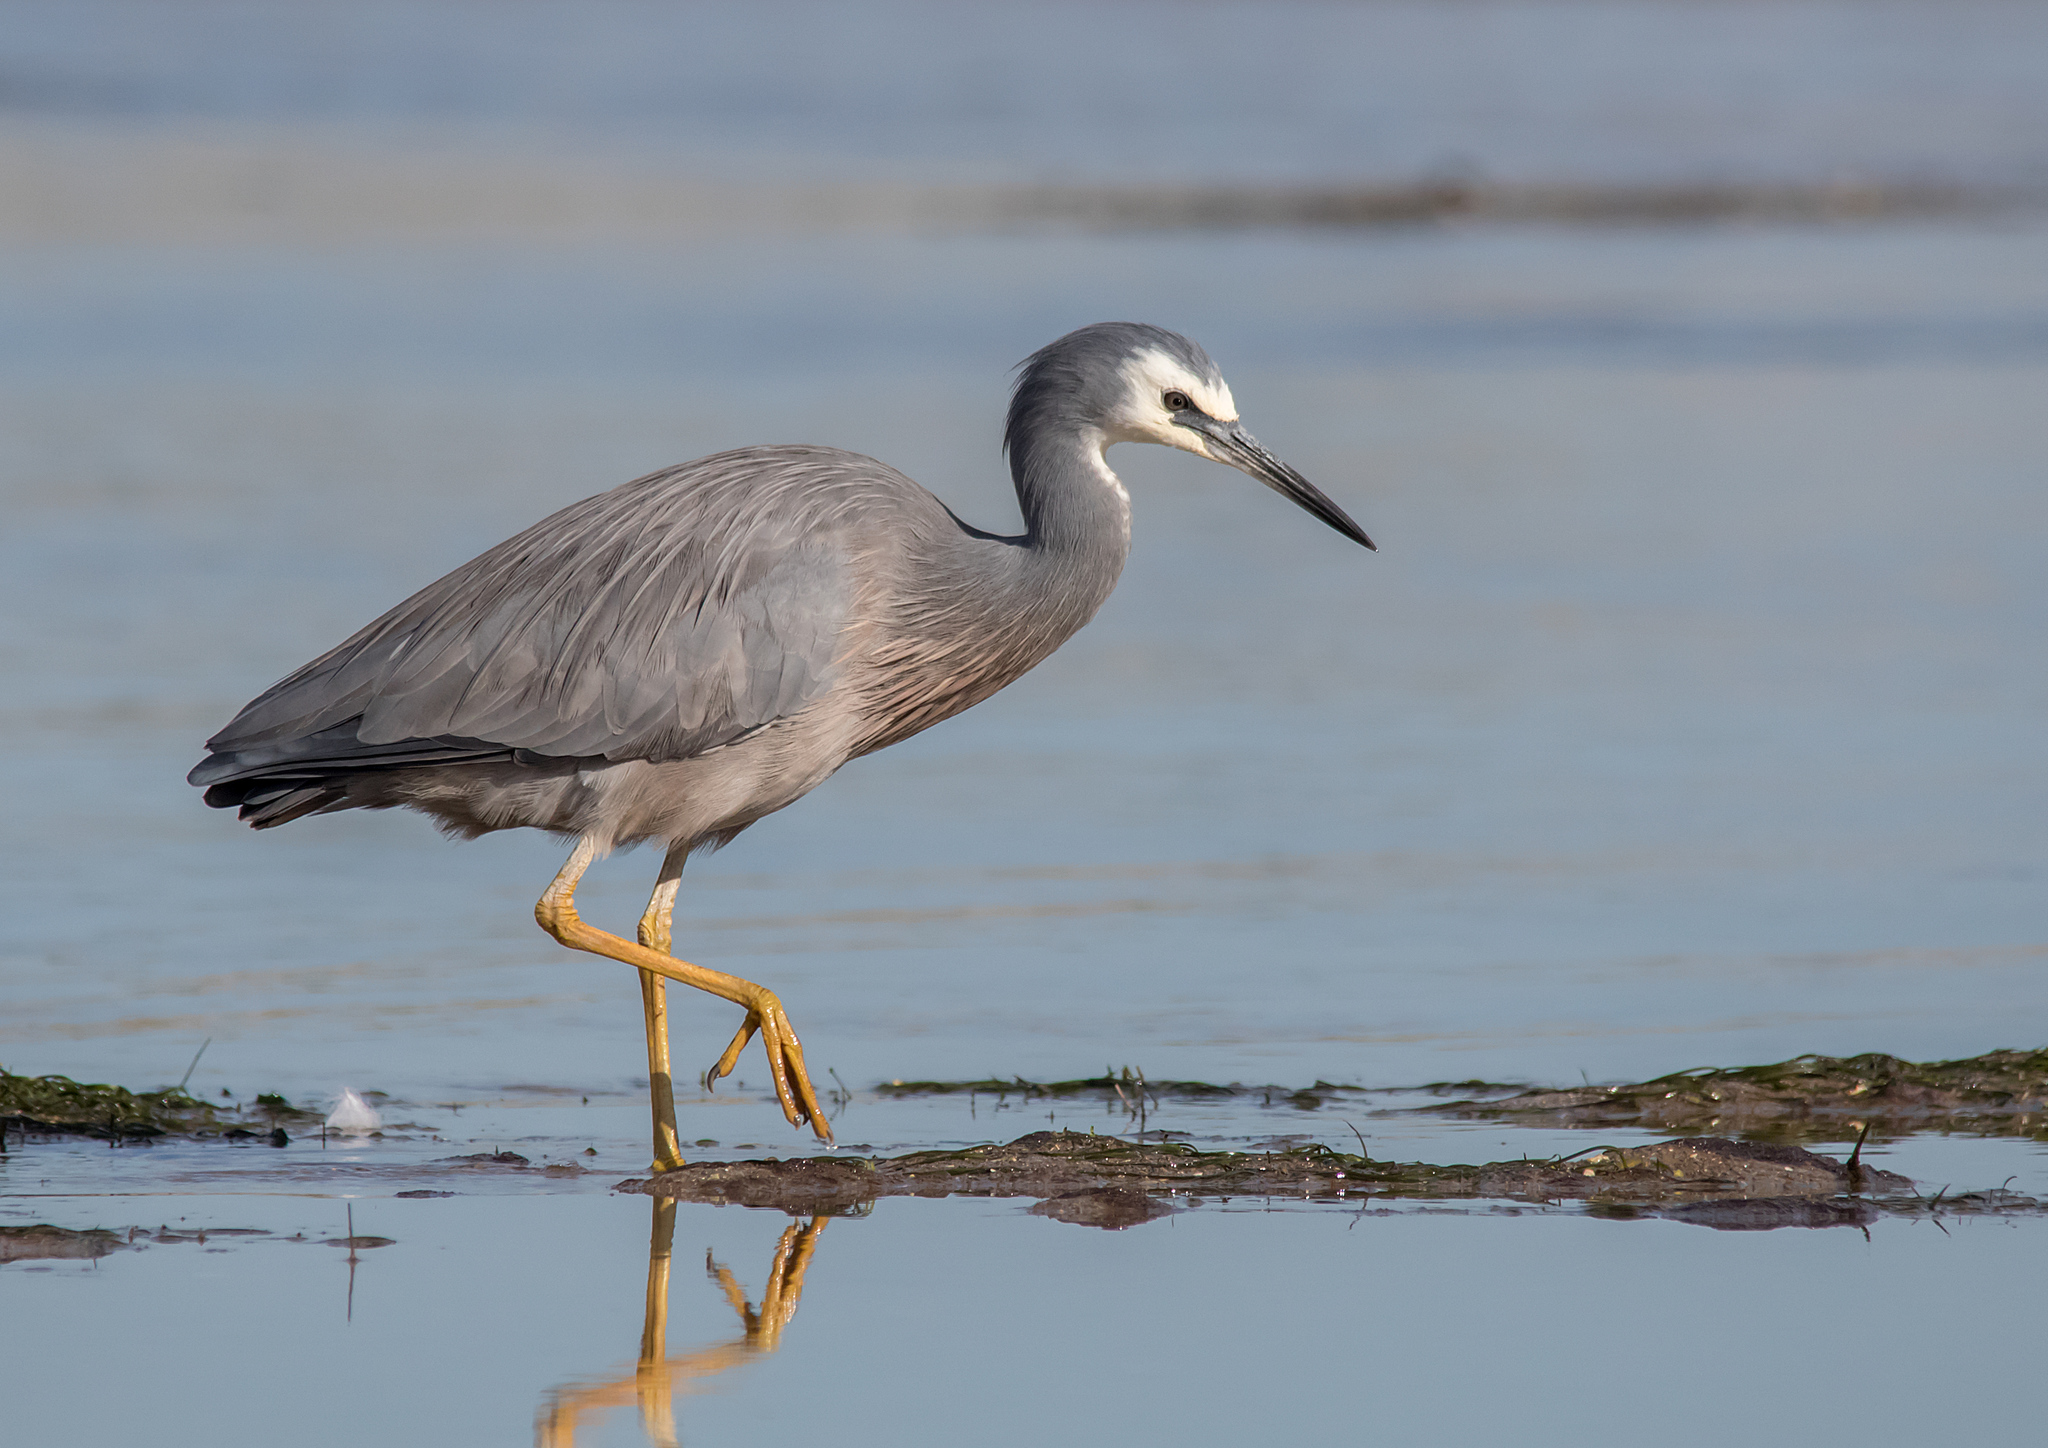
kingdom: Animalia
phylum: Chordata
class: Aves
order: Pelecaniformes
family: Ardeidae
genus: Egretta
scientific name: Egretta novaehollandiae
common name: White-faced heron
